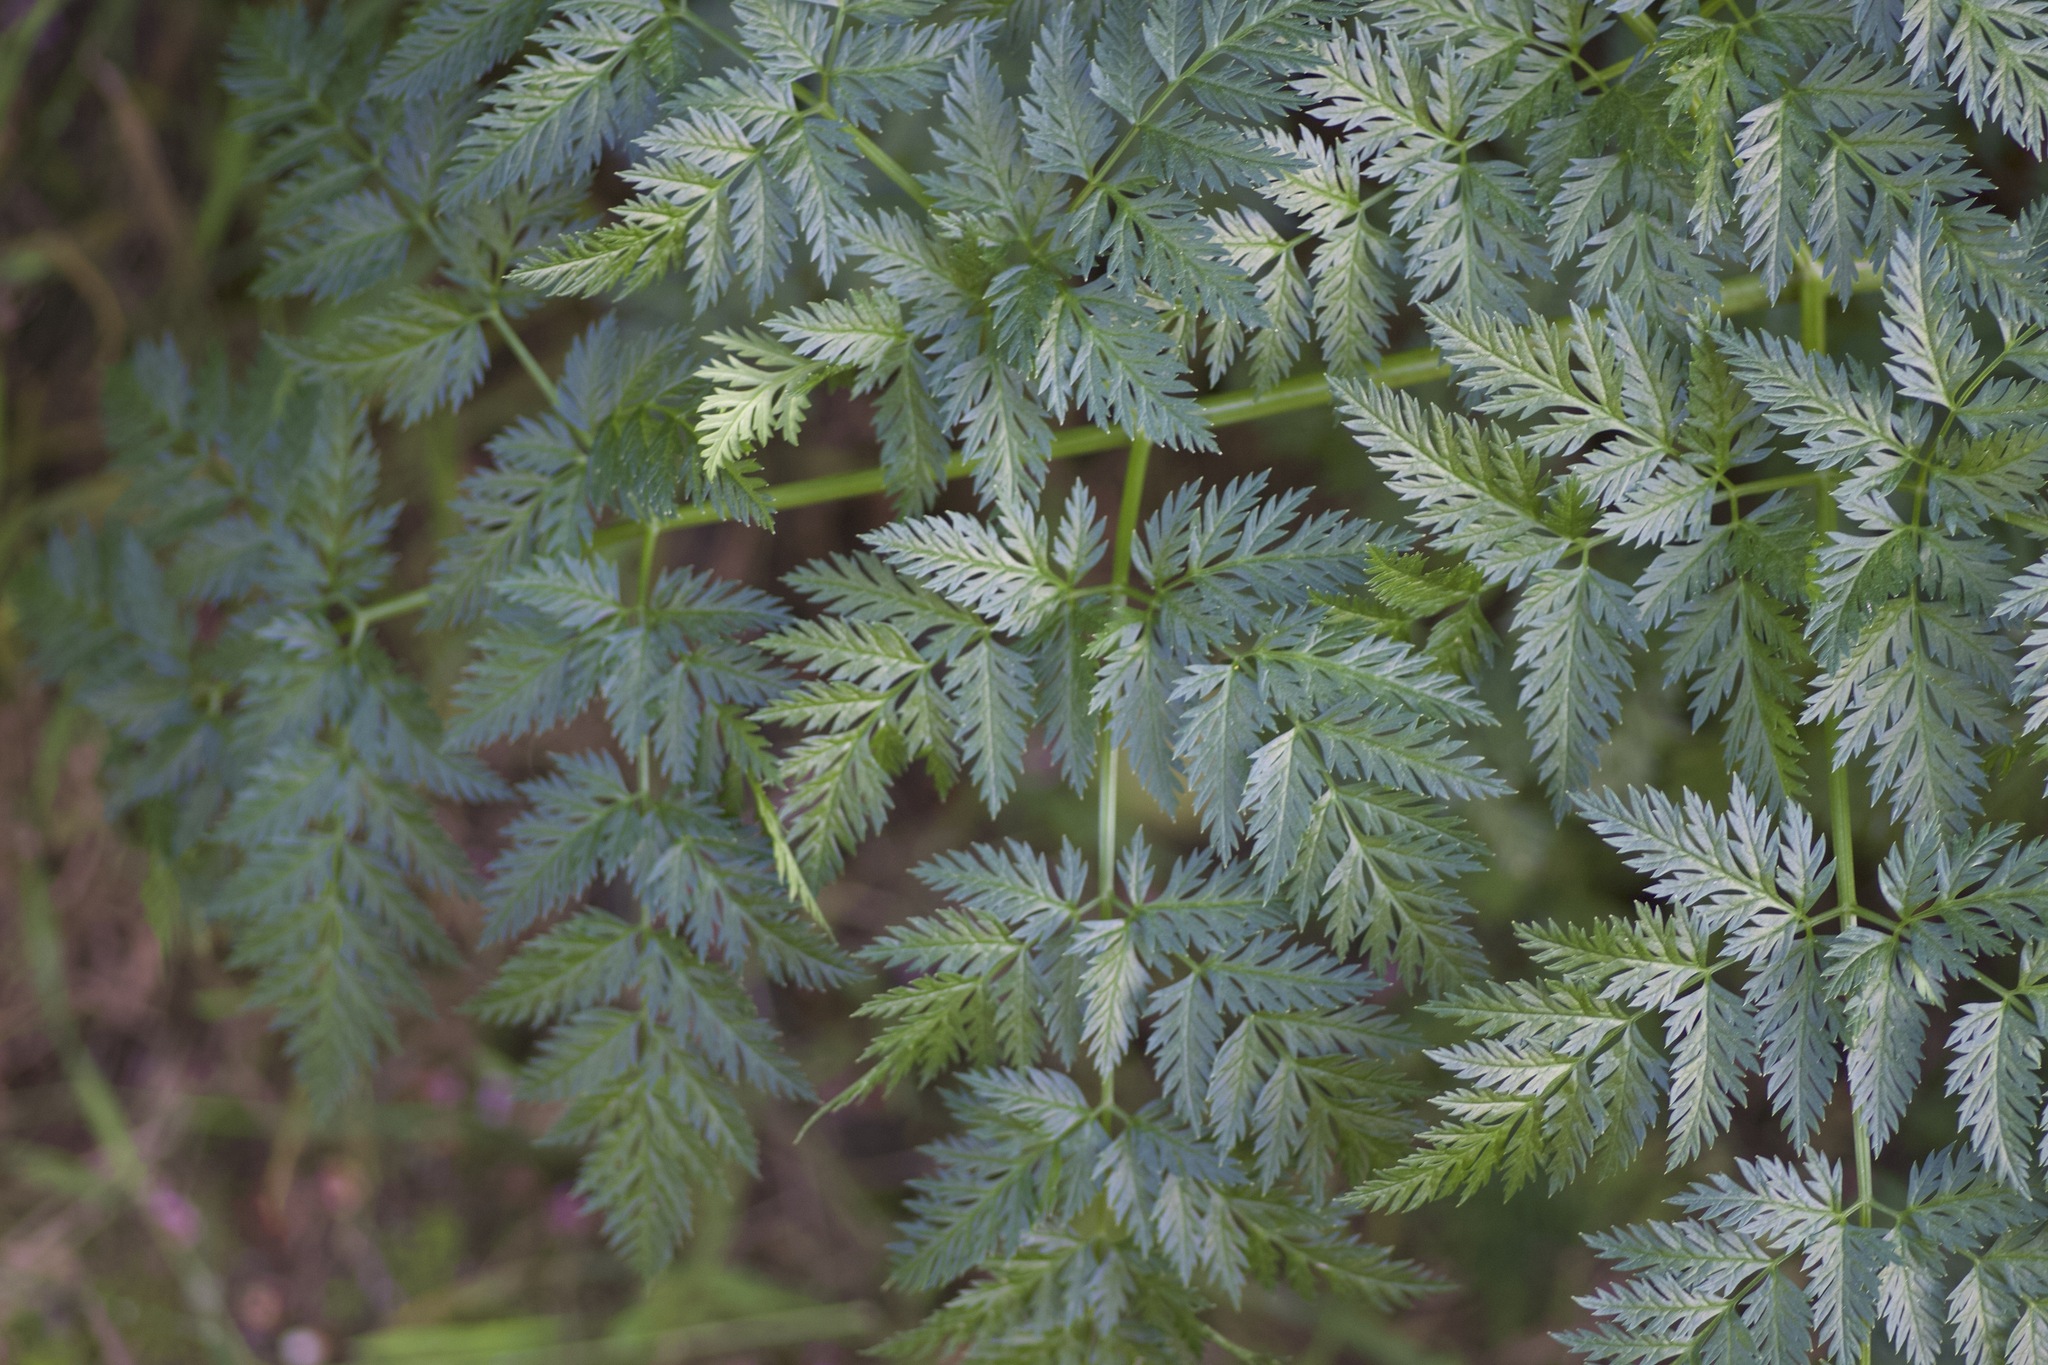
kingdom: Plantae
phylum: Tracheophyta
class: Magnoliopsida
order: Apiales
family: Apiaceae
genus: Conium
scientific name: Conium maculatum
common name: Hemlock
